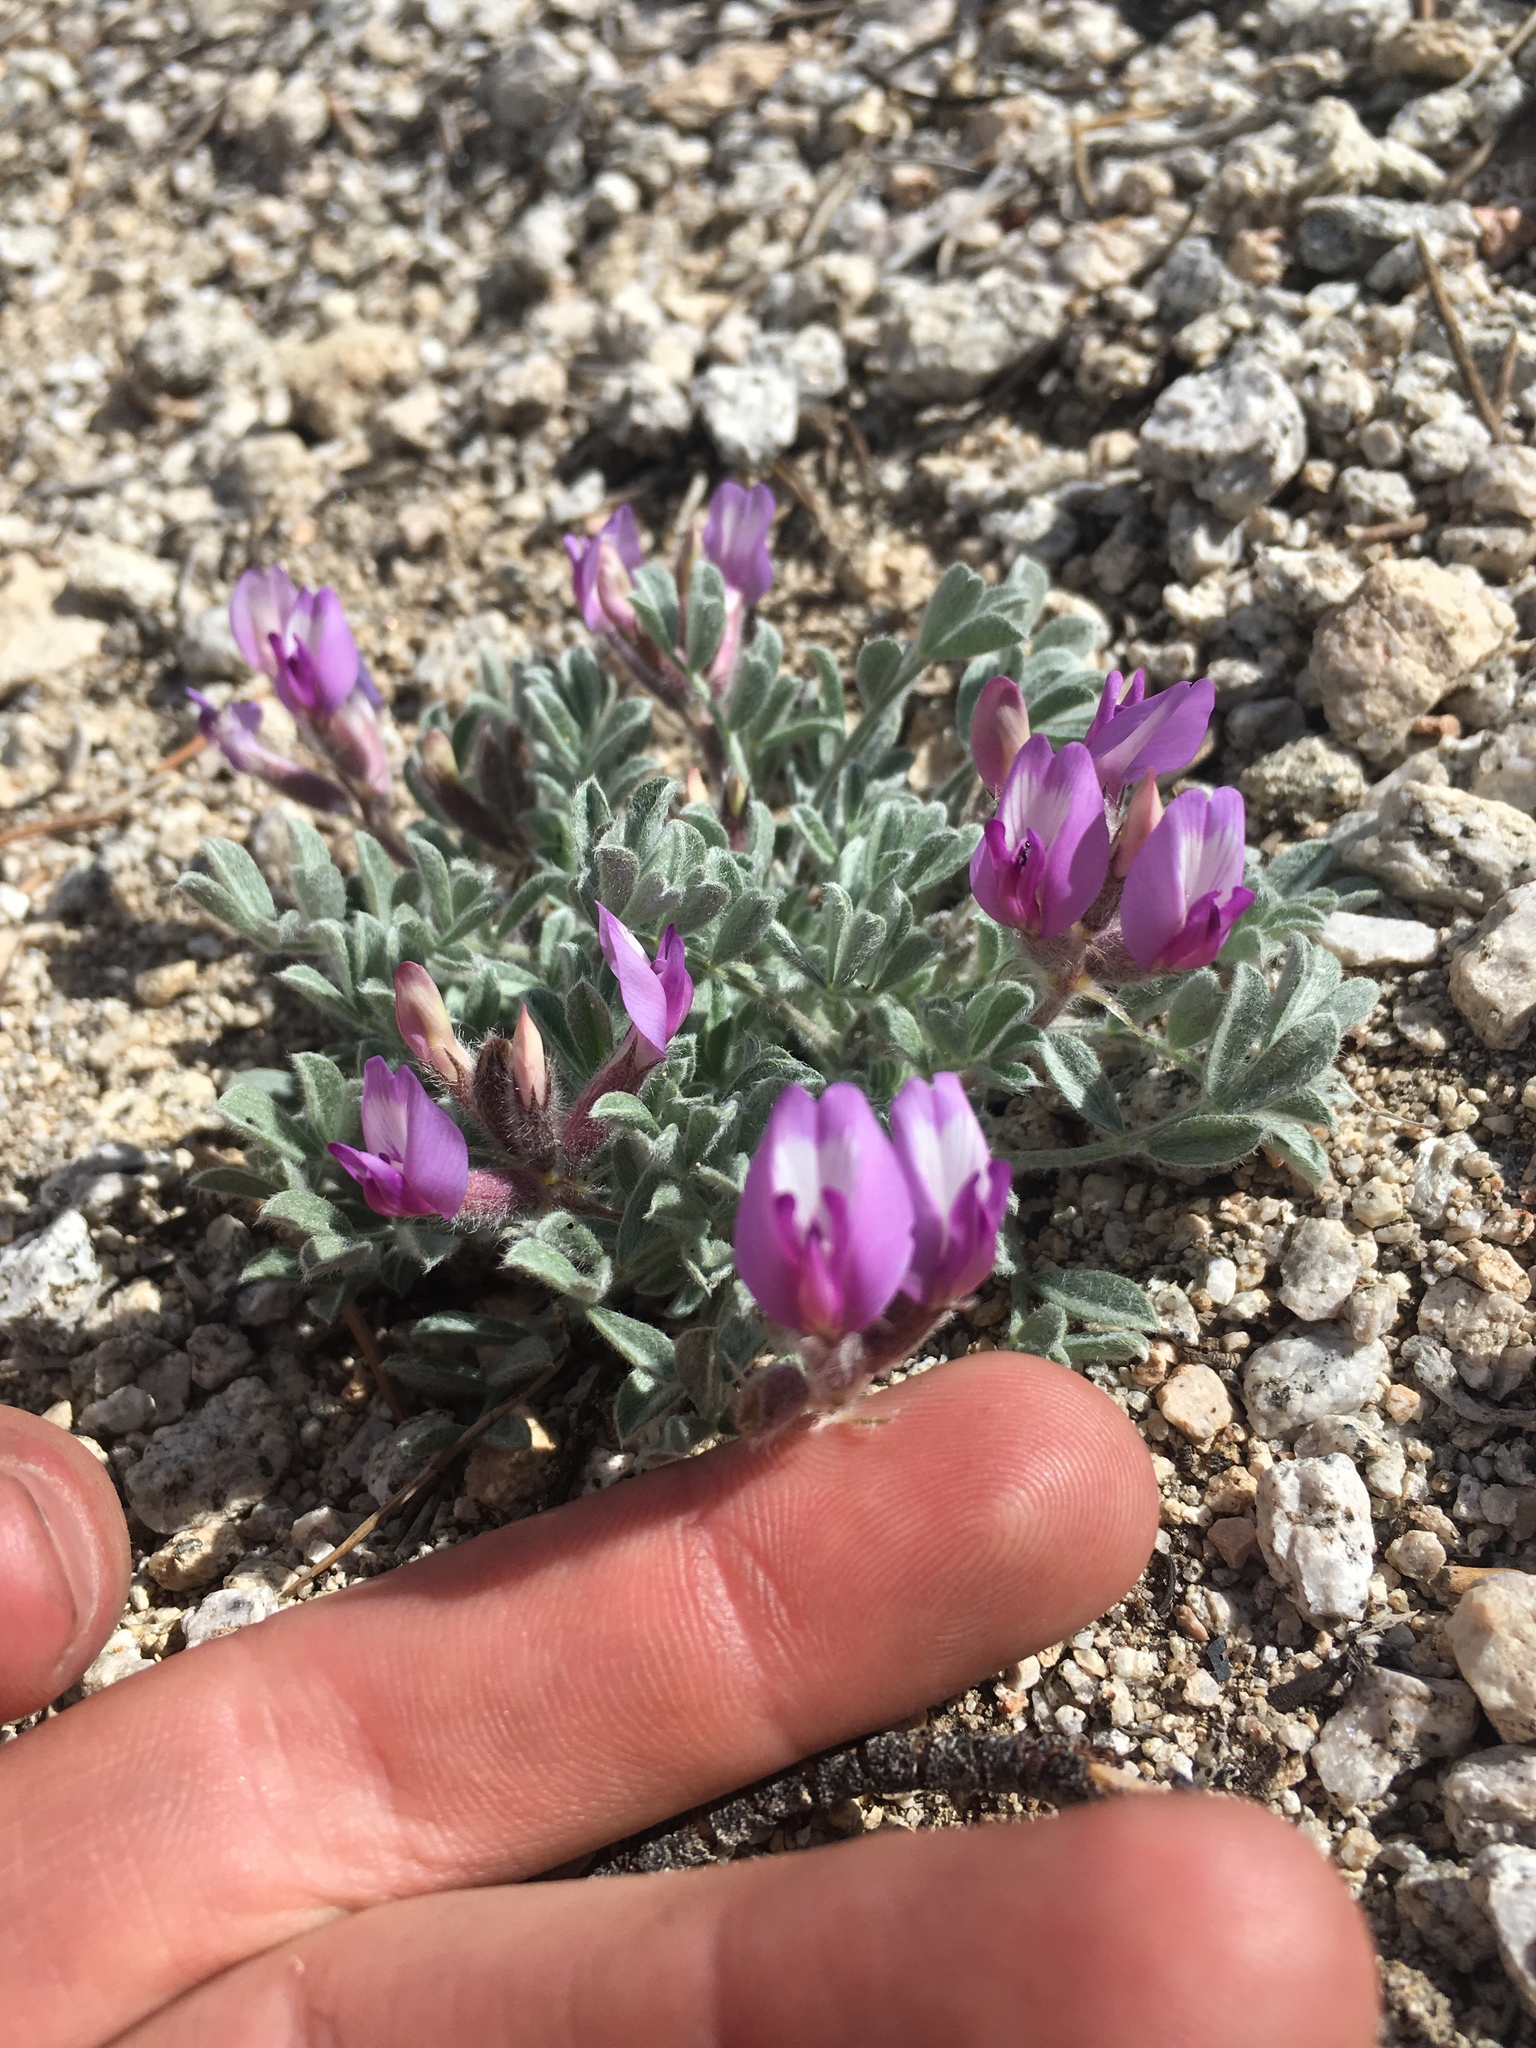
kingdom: Plantae
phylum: Tracheophyta
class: Magnoliopsida
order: Fabales
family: Fabaceae
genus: Astragalus
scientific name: Astragalus purshii
